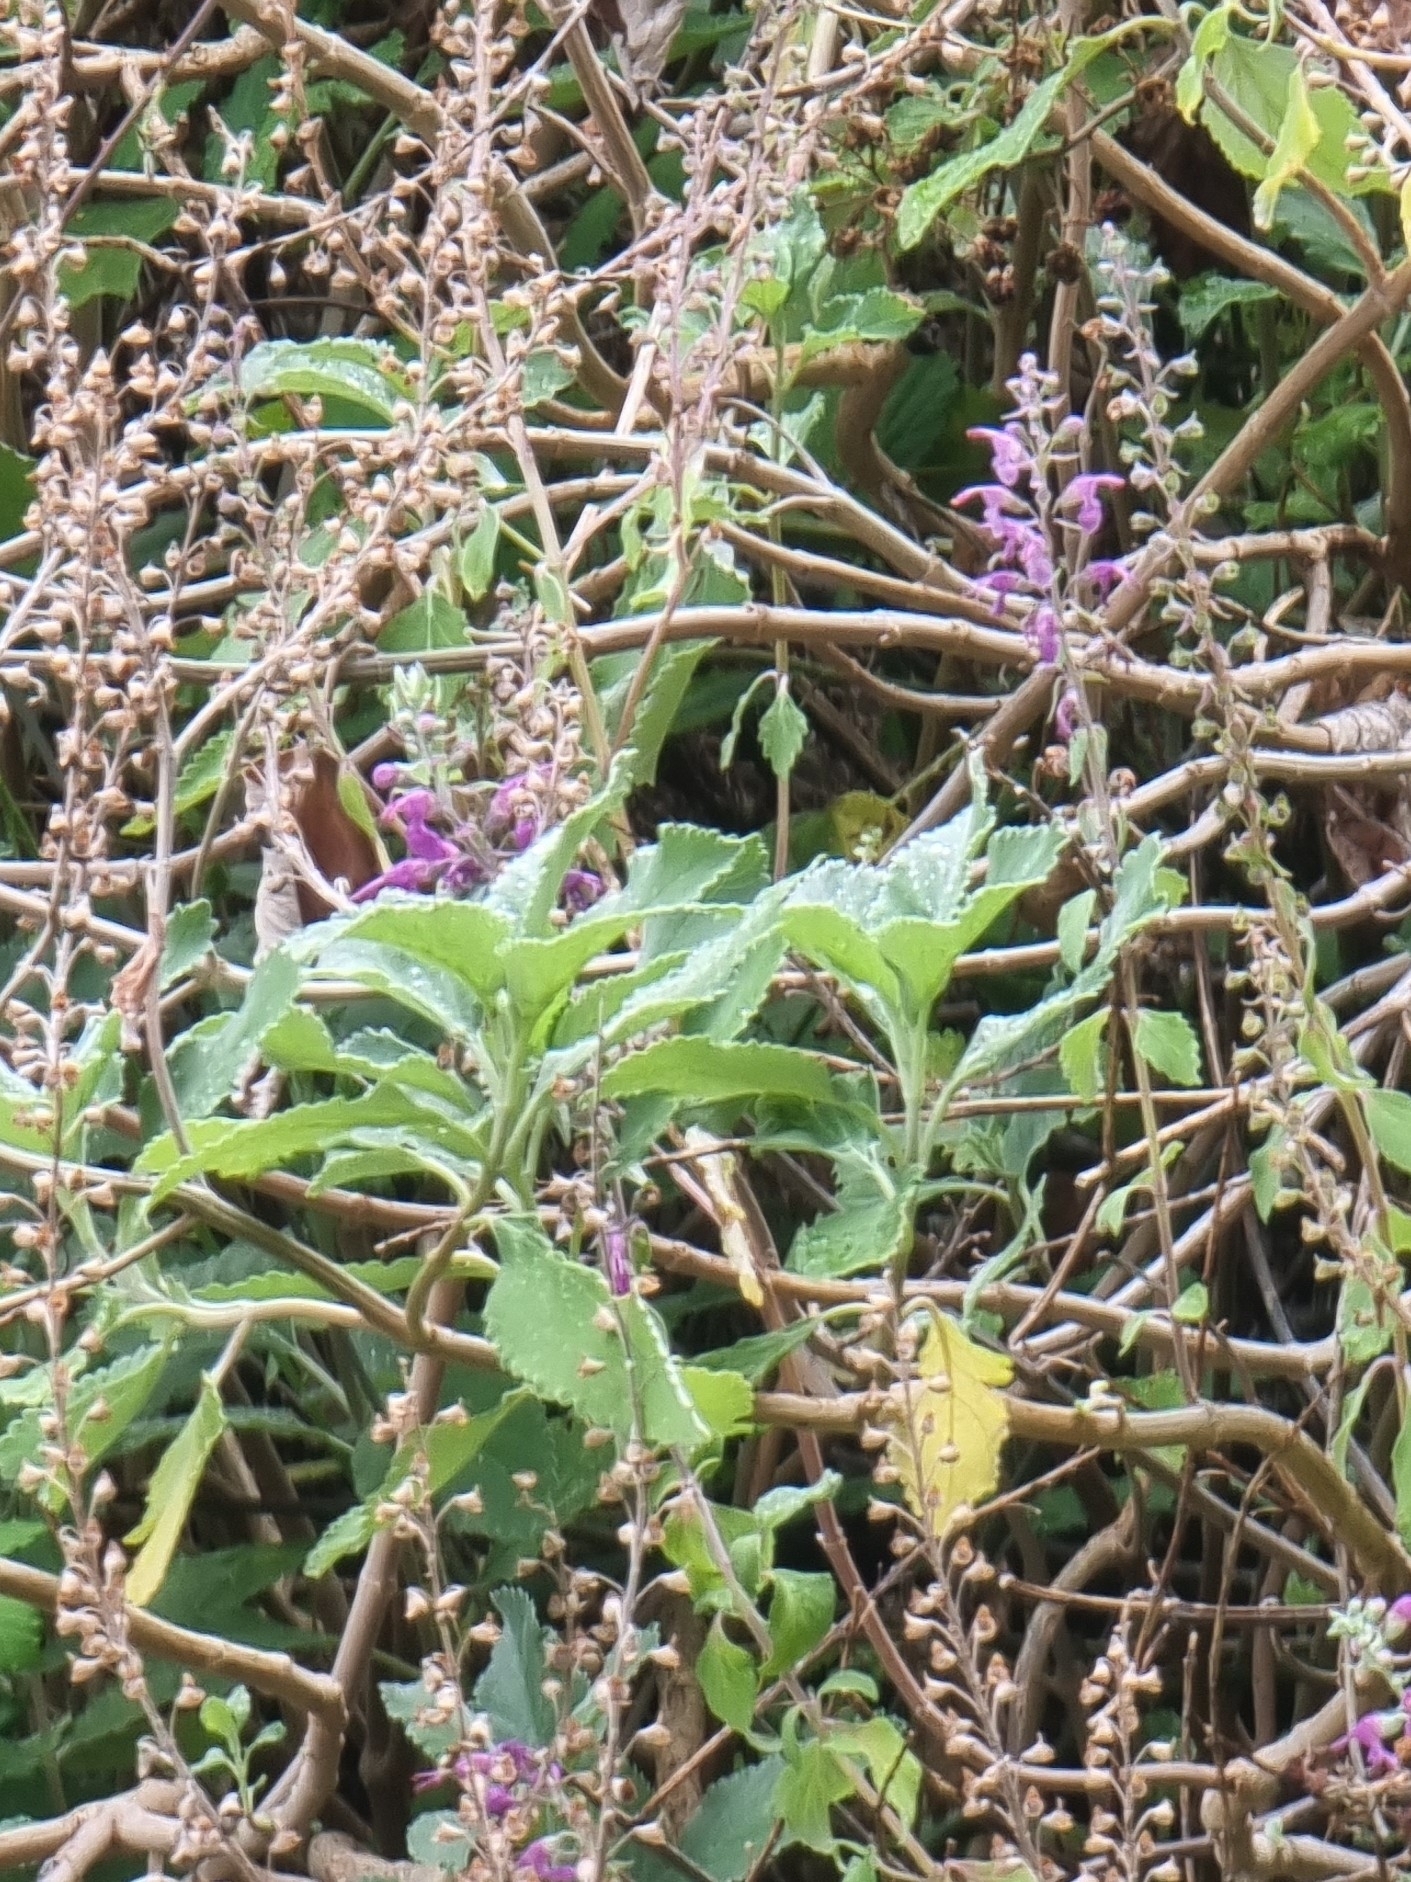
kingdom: Plantae
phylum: Tracheophyta
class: Magnoliopsida
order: Lamiales
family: Lamiaceae
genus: Teucrium
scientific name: Teucrium betonicum
